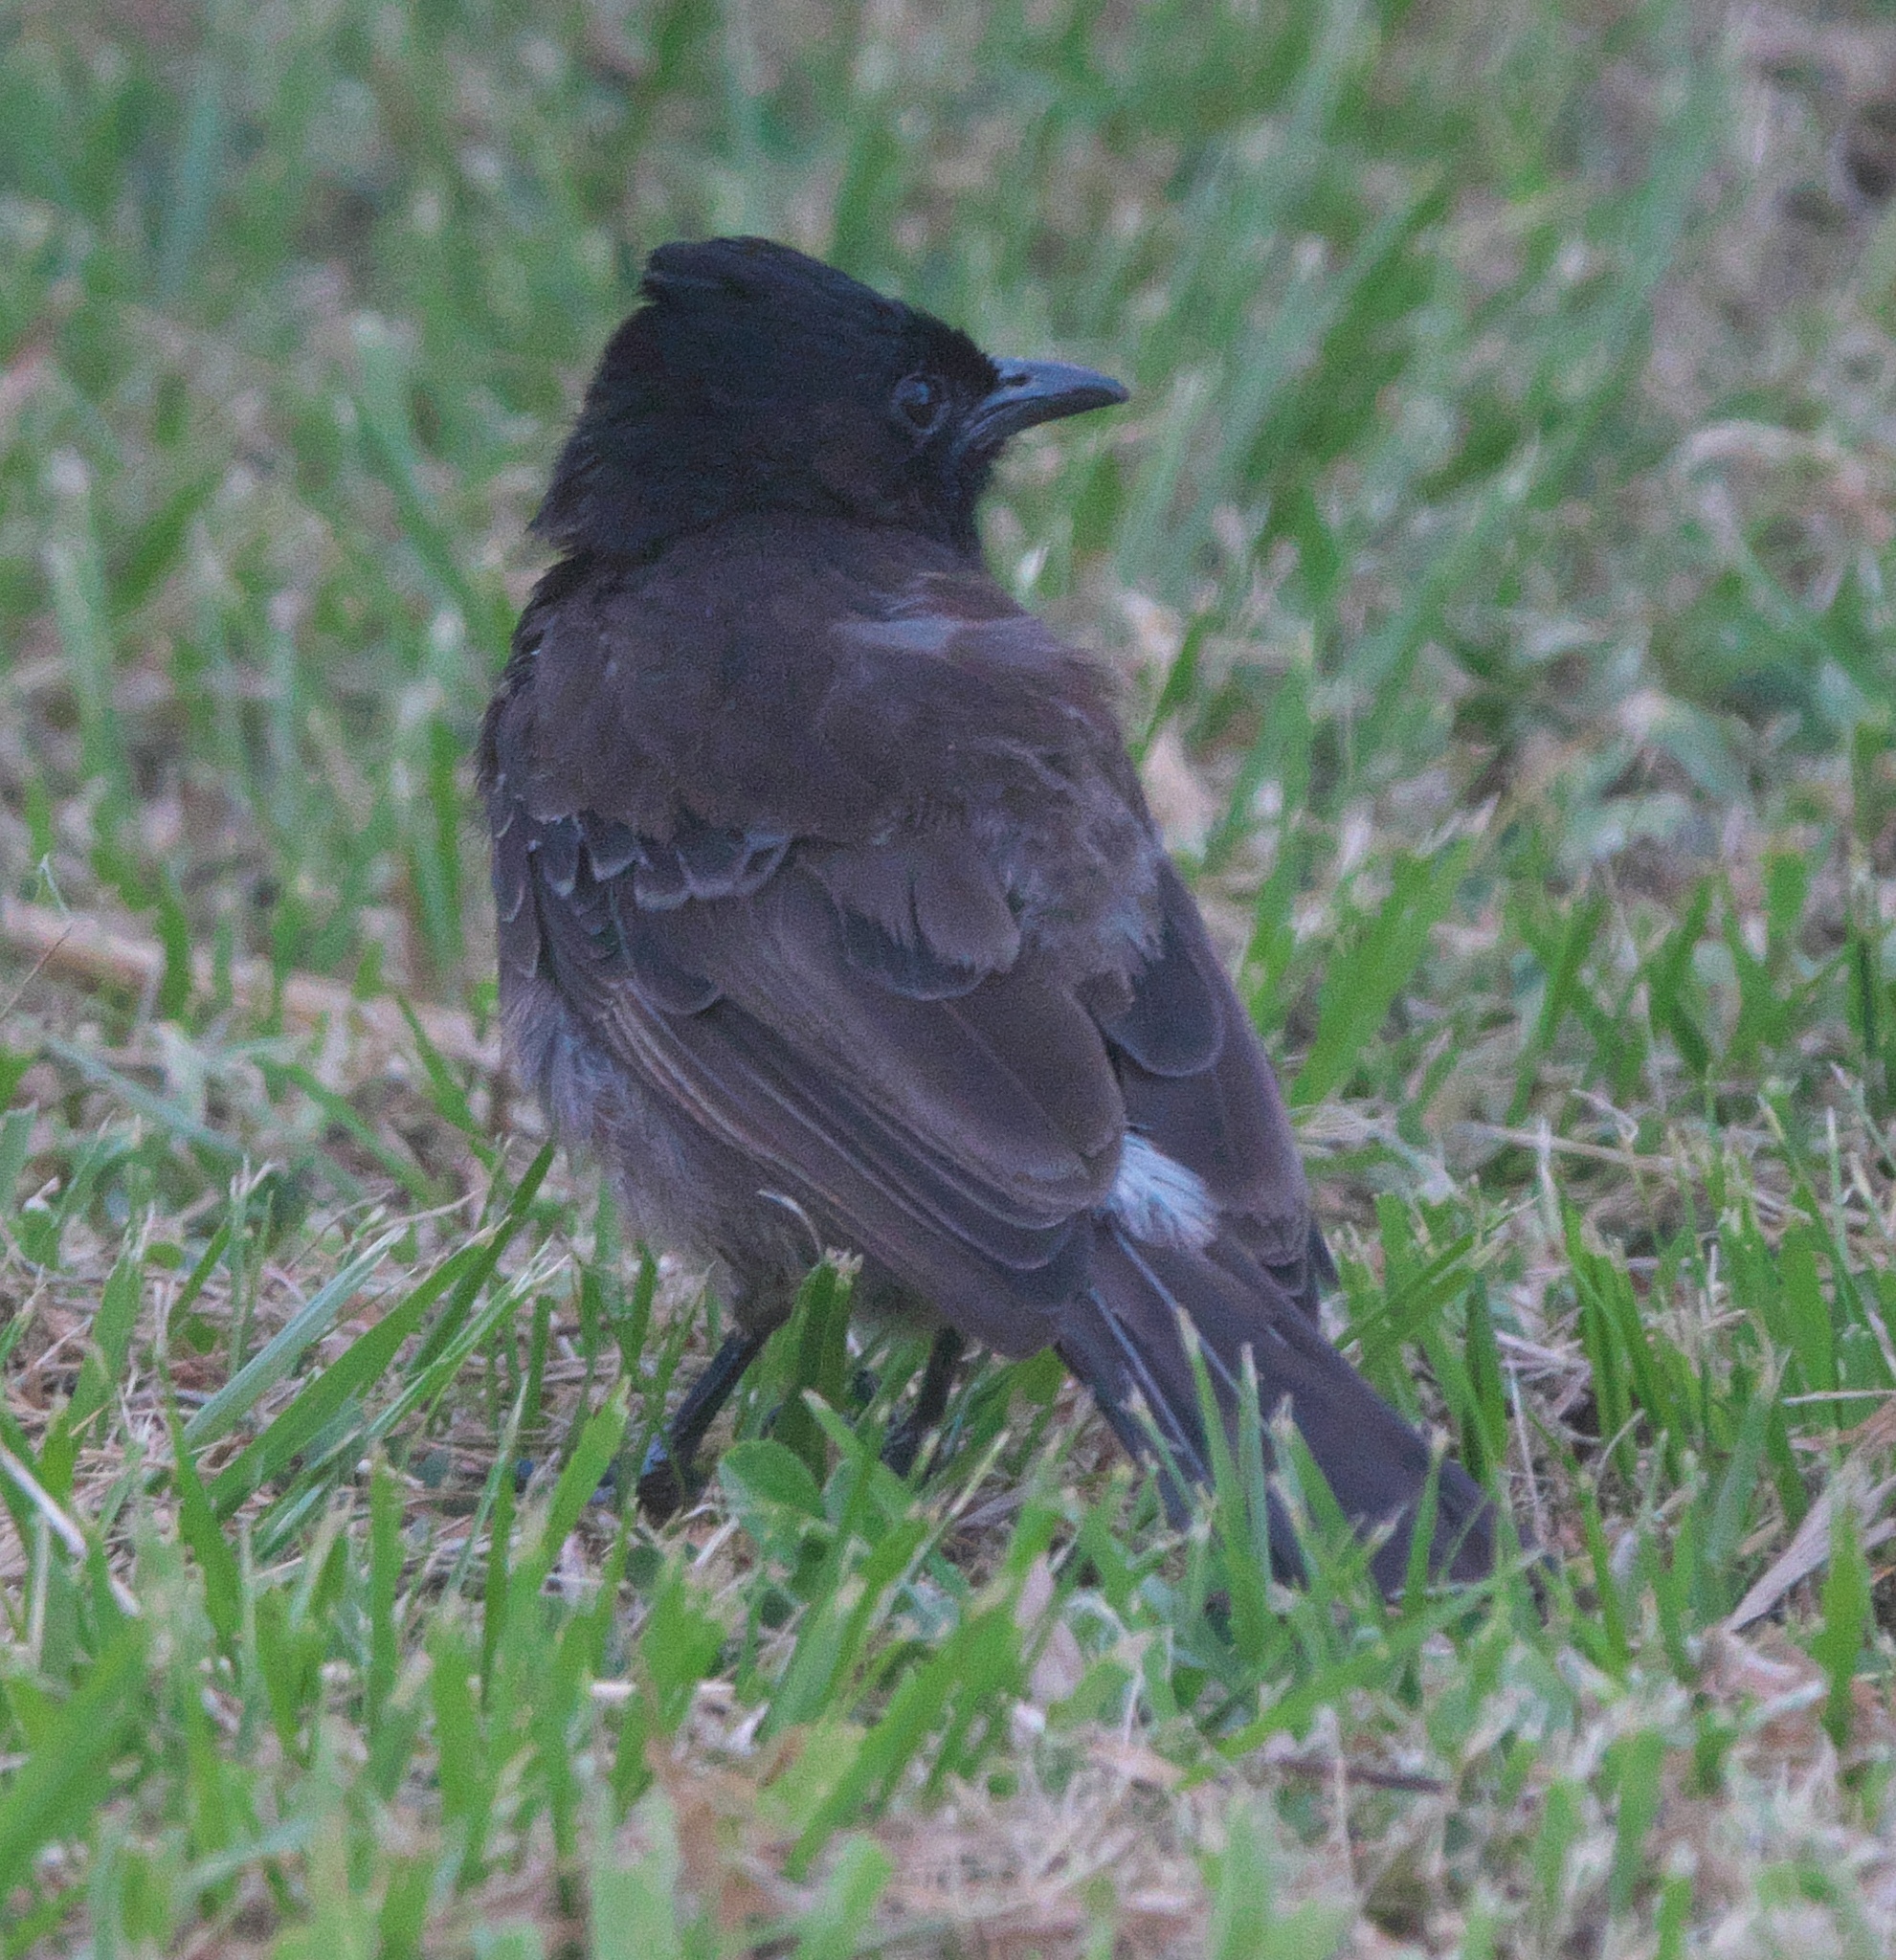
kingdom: Animalia
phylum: Chordata
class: Aves
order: Passeriformes
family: Pycnonotidae
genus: Pycnonotus
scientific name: Pycnonotus cafer
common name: Red-vented bulbul
